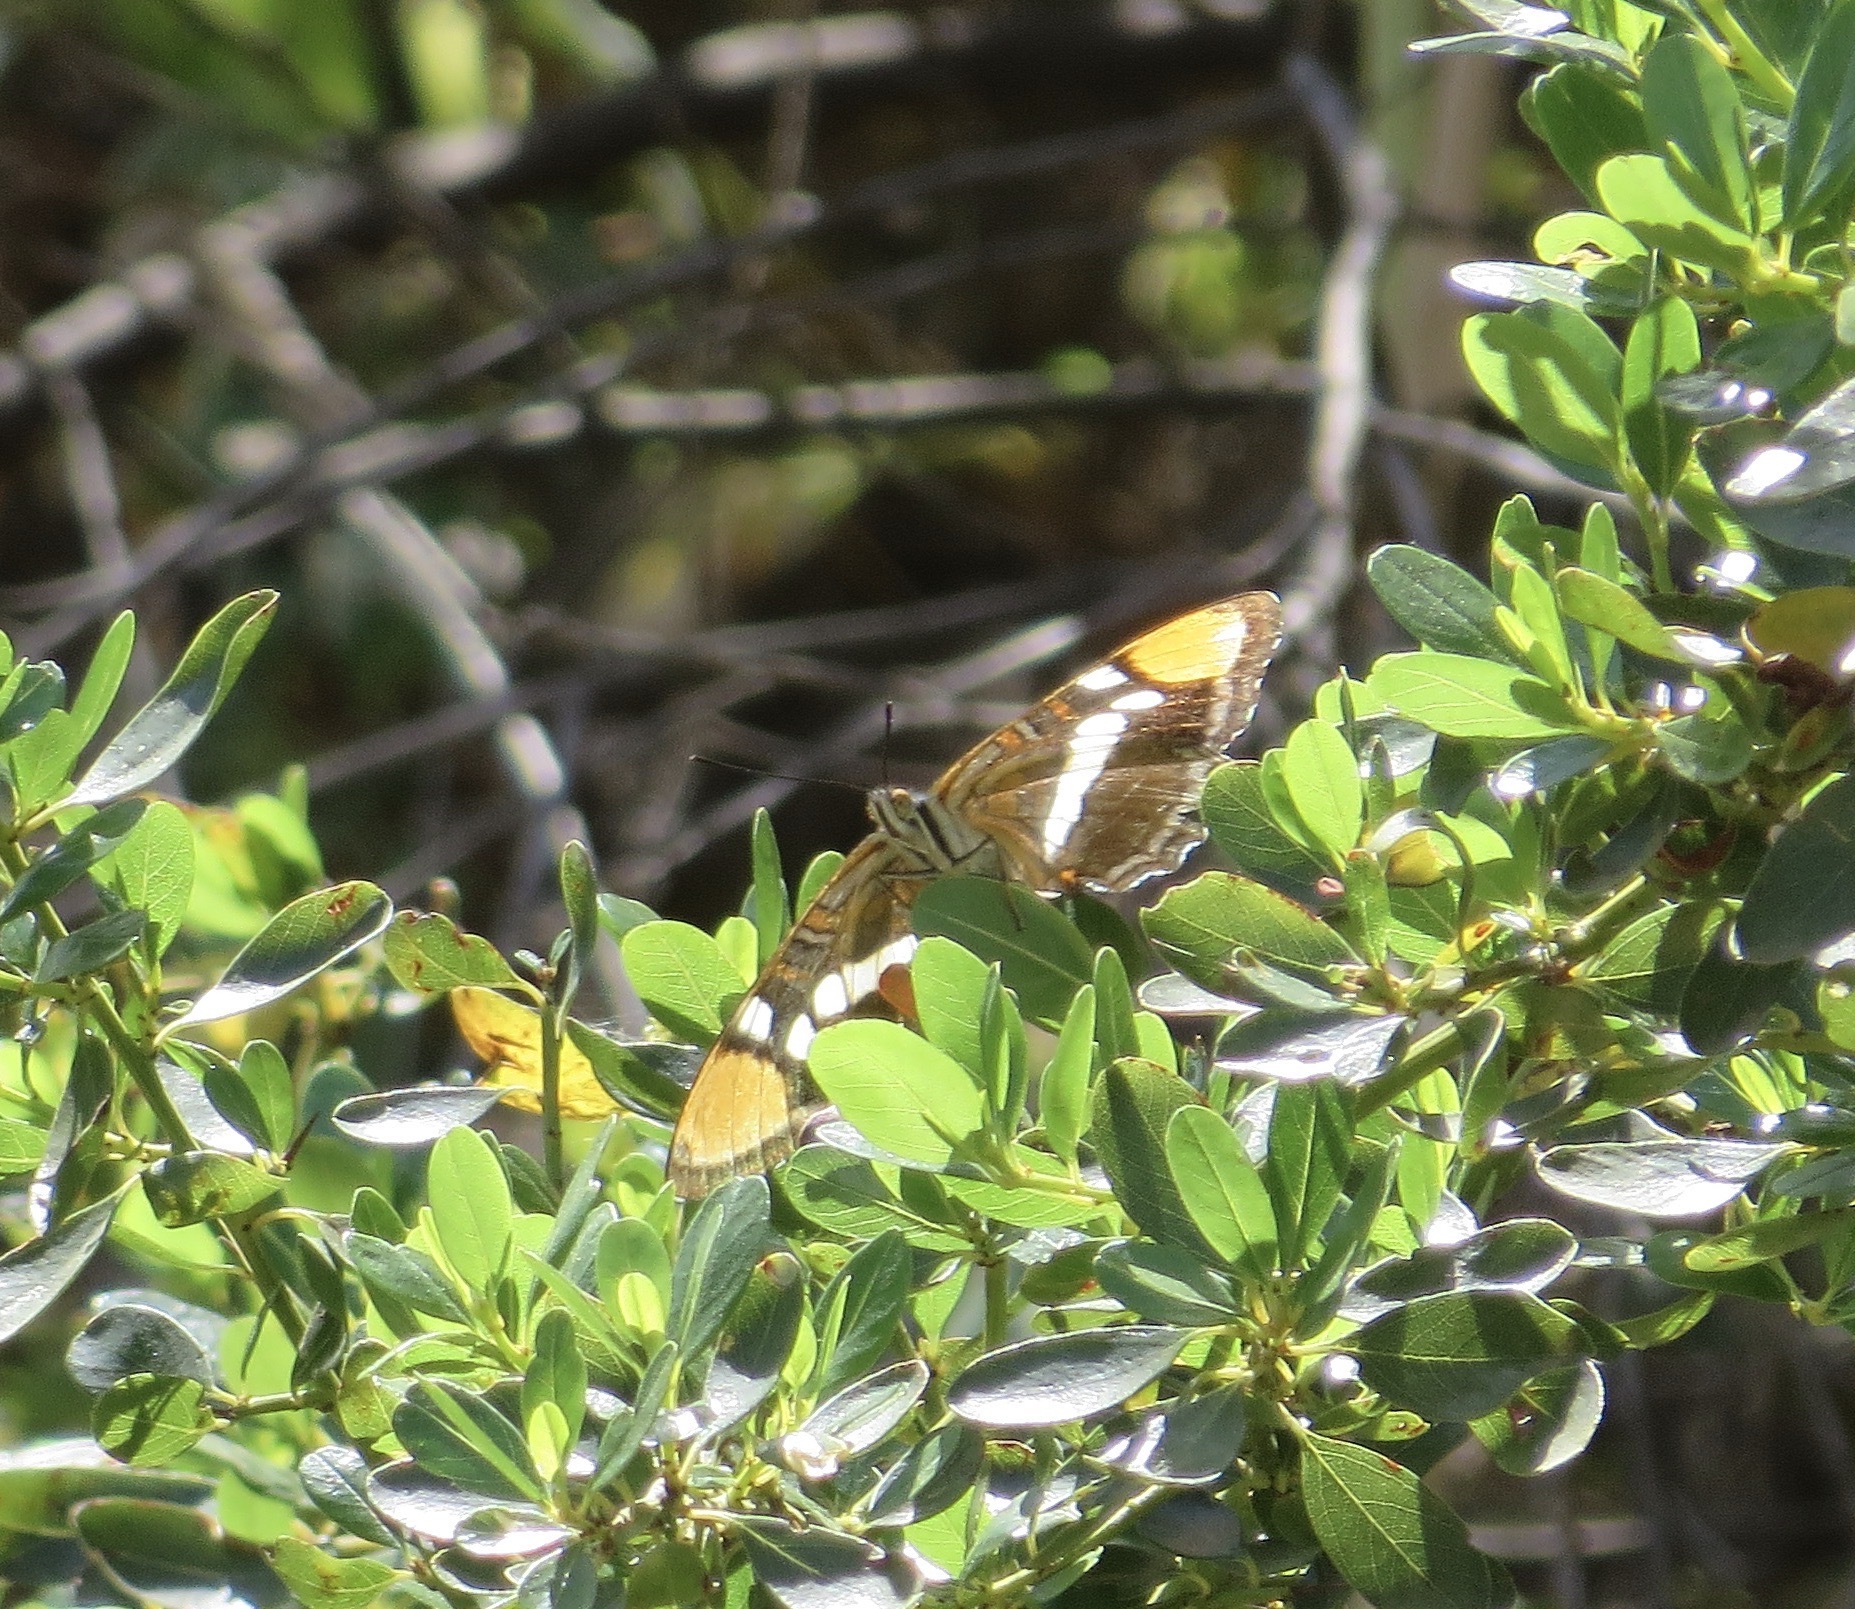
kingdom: Animalia
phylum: Arthropoda
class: Insecta
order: Lepidoptera
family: Nymphalidae
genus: Limenitis
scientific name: Limenitis bredowii
